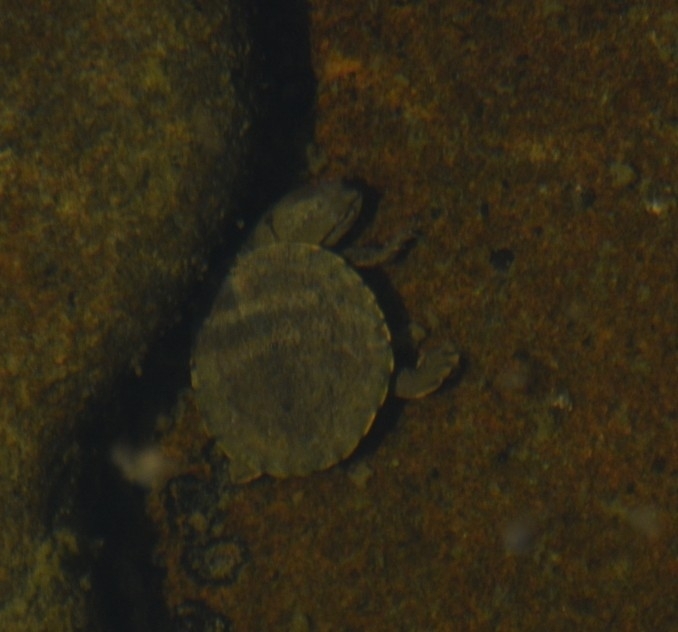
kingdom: Animalia
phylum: Chordata
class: Testudines
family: Chelidae
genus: Phrynops
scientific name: Phrynops hilarii
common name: Side-necked turtle of saint hillaire
